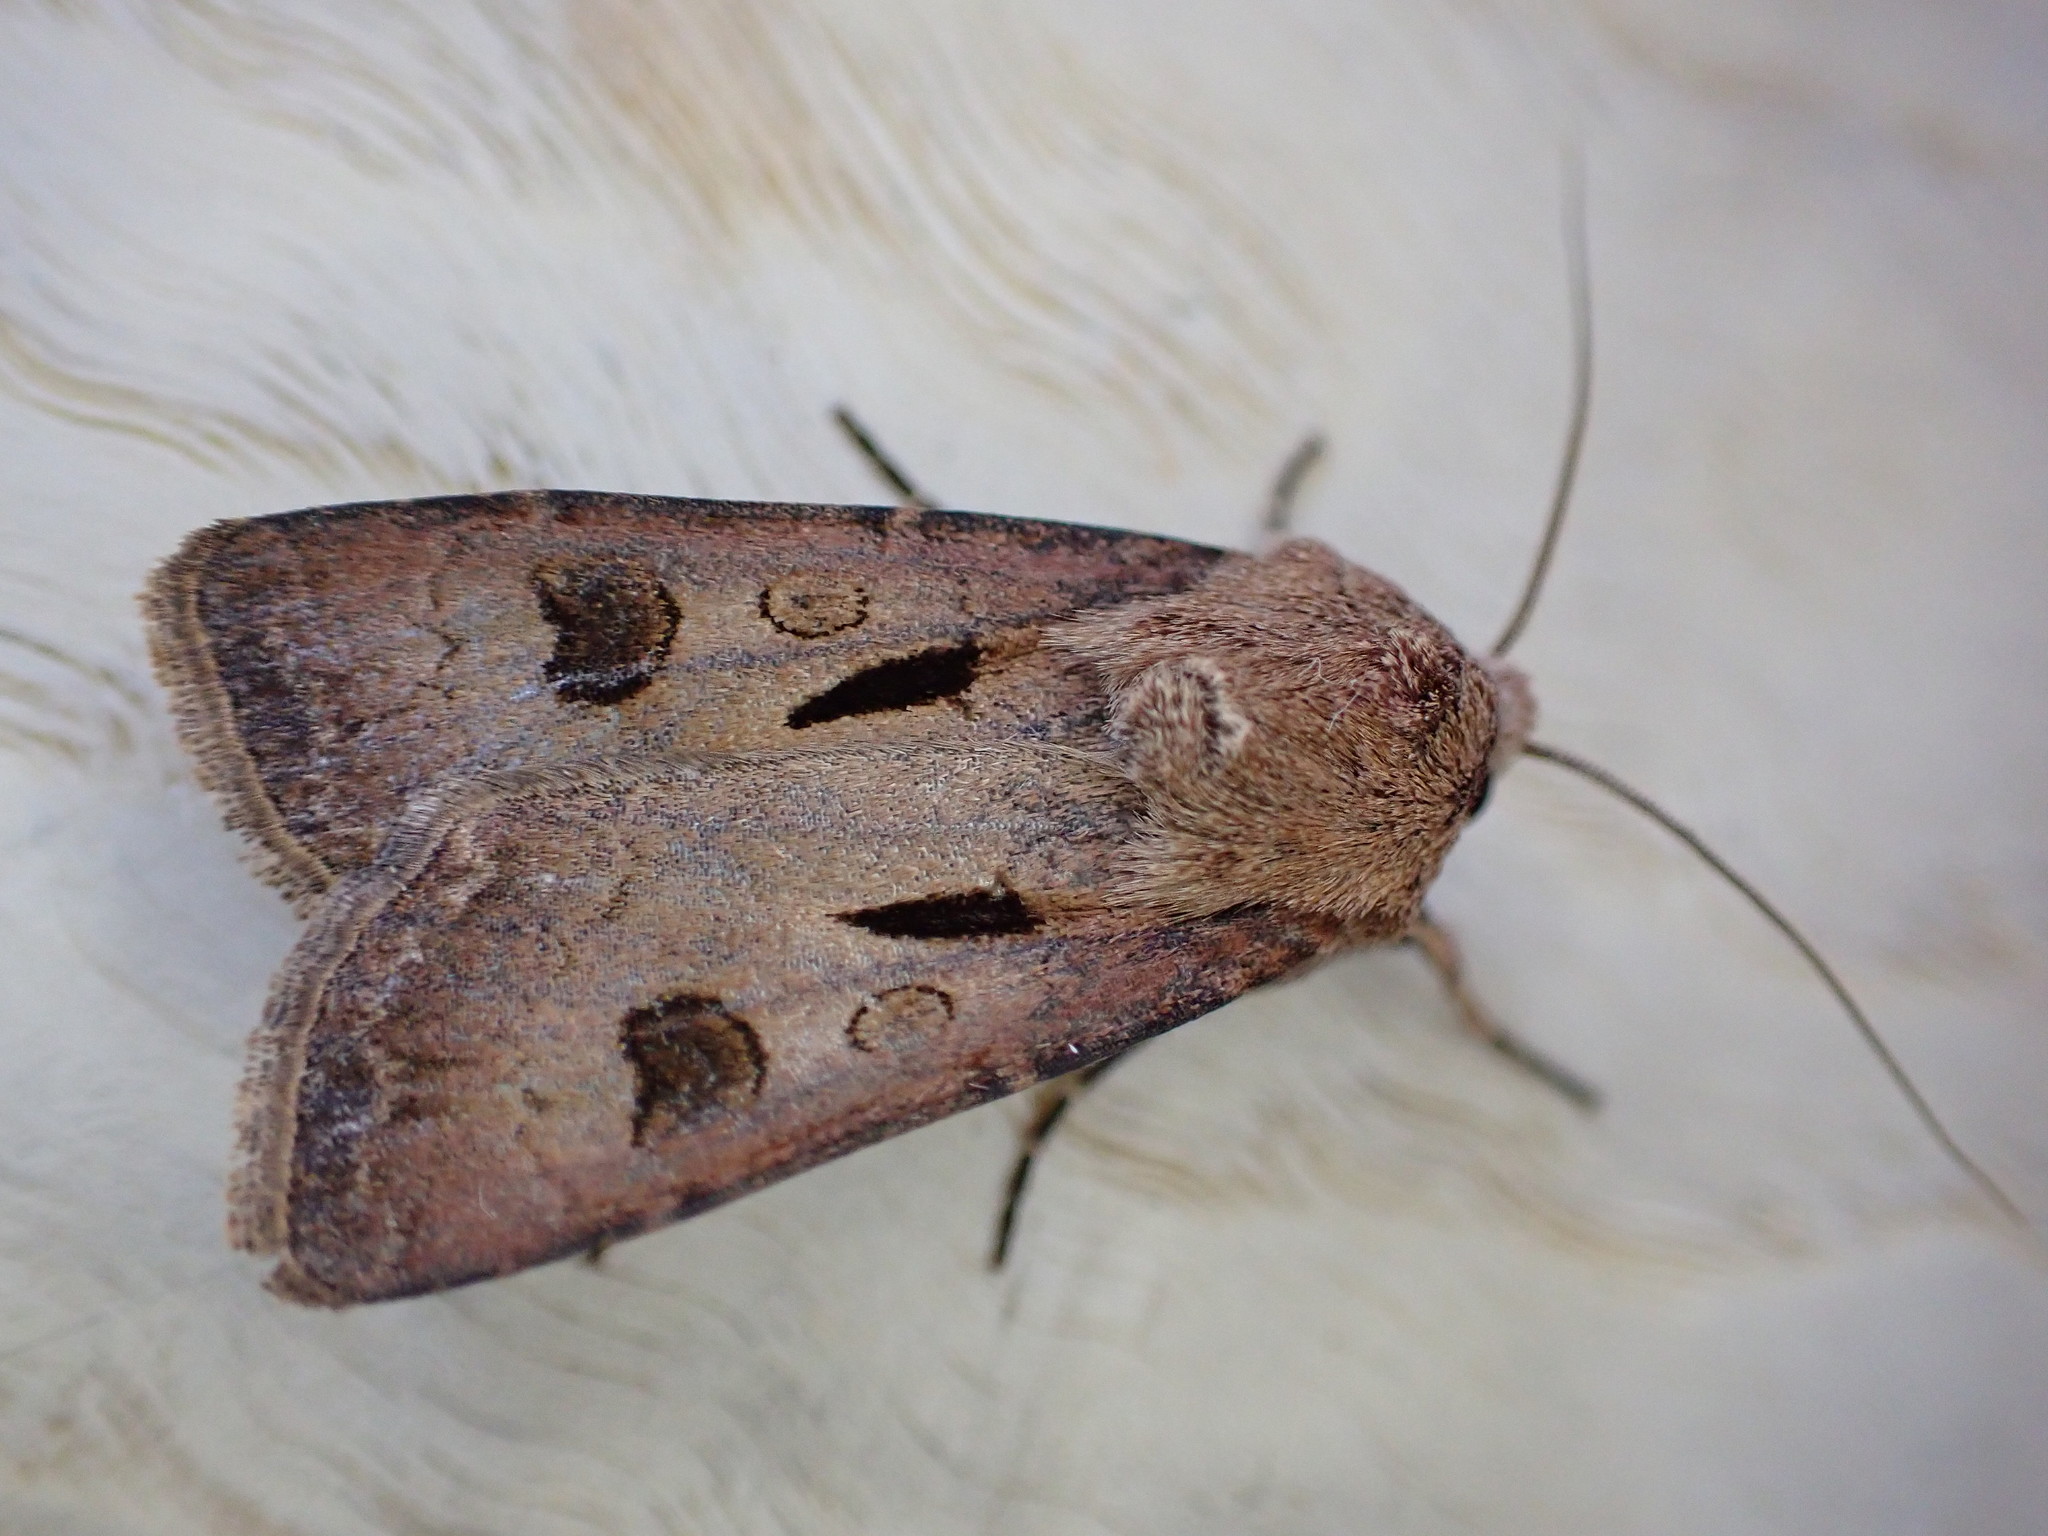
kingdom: Animalia
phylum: Arthropoda
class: Insecta
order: Lepidoptera
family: Noctuidae
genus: Agrotis
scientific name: Agrotis exclamationis
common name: Heart and dart
